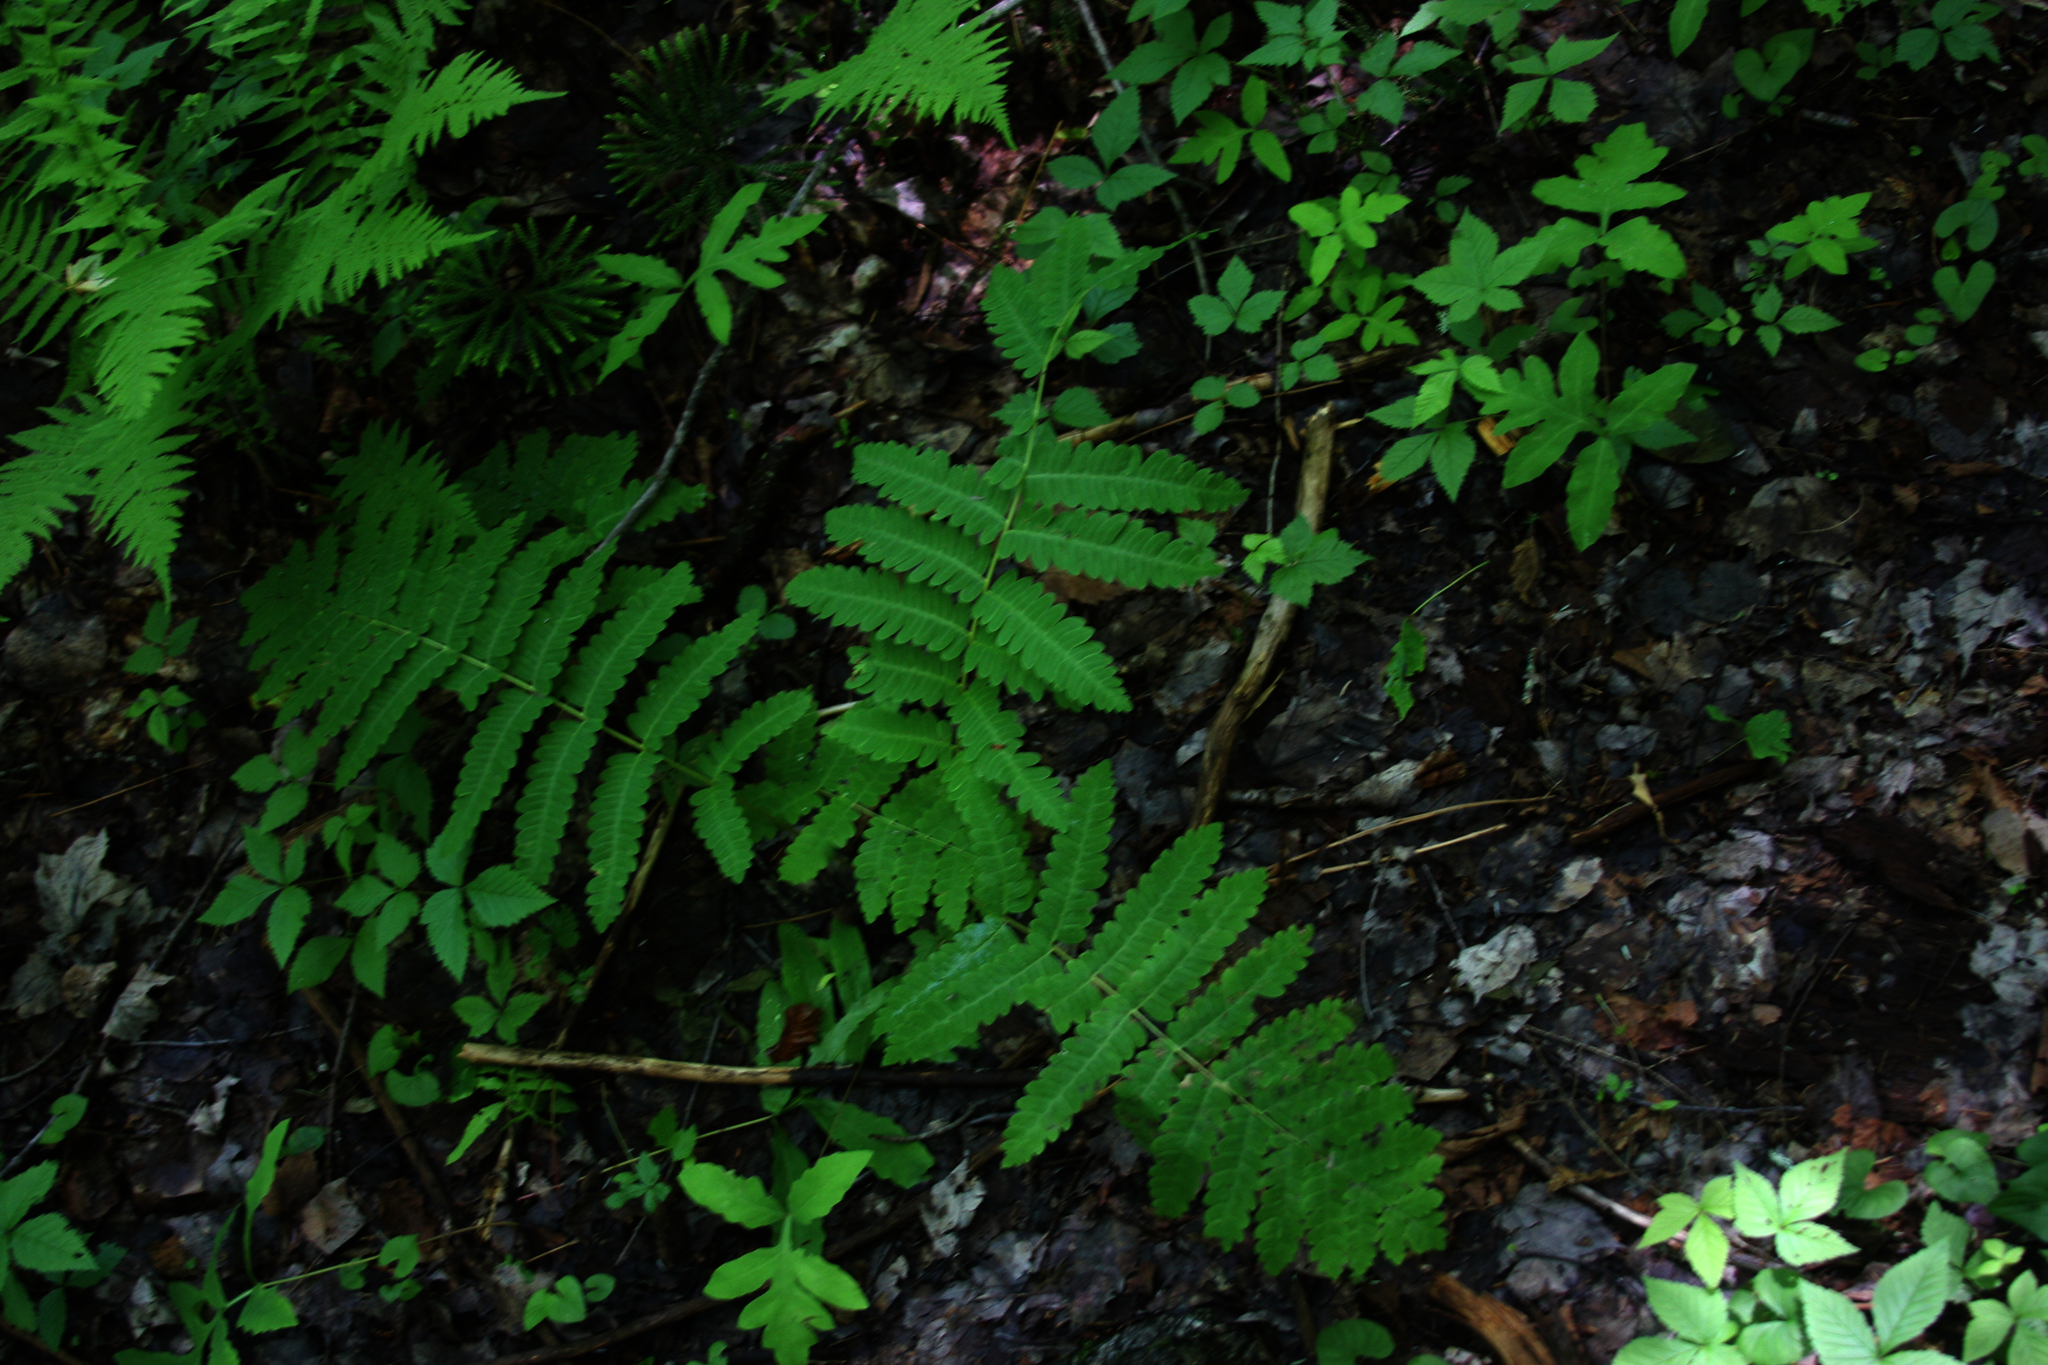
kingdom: Plantae
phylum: Tracheophyta
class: Polypodiopsida
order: Osmundales
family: Osmundaceae
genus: Claytosmunda
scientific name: Claytosmunda claytoniana
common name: Clayton's fern
